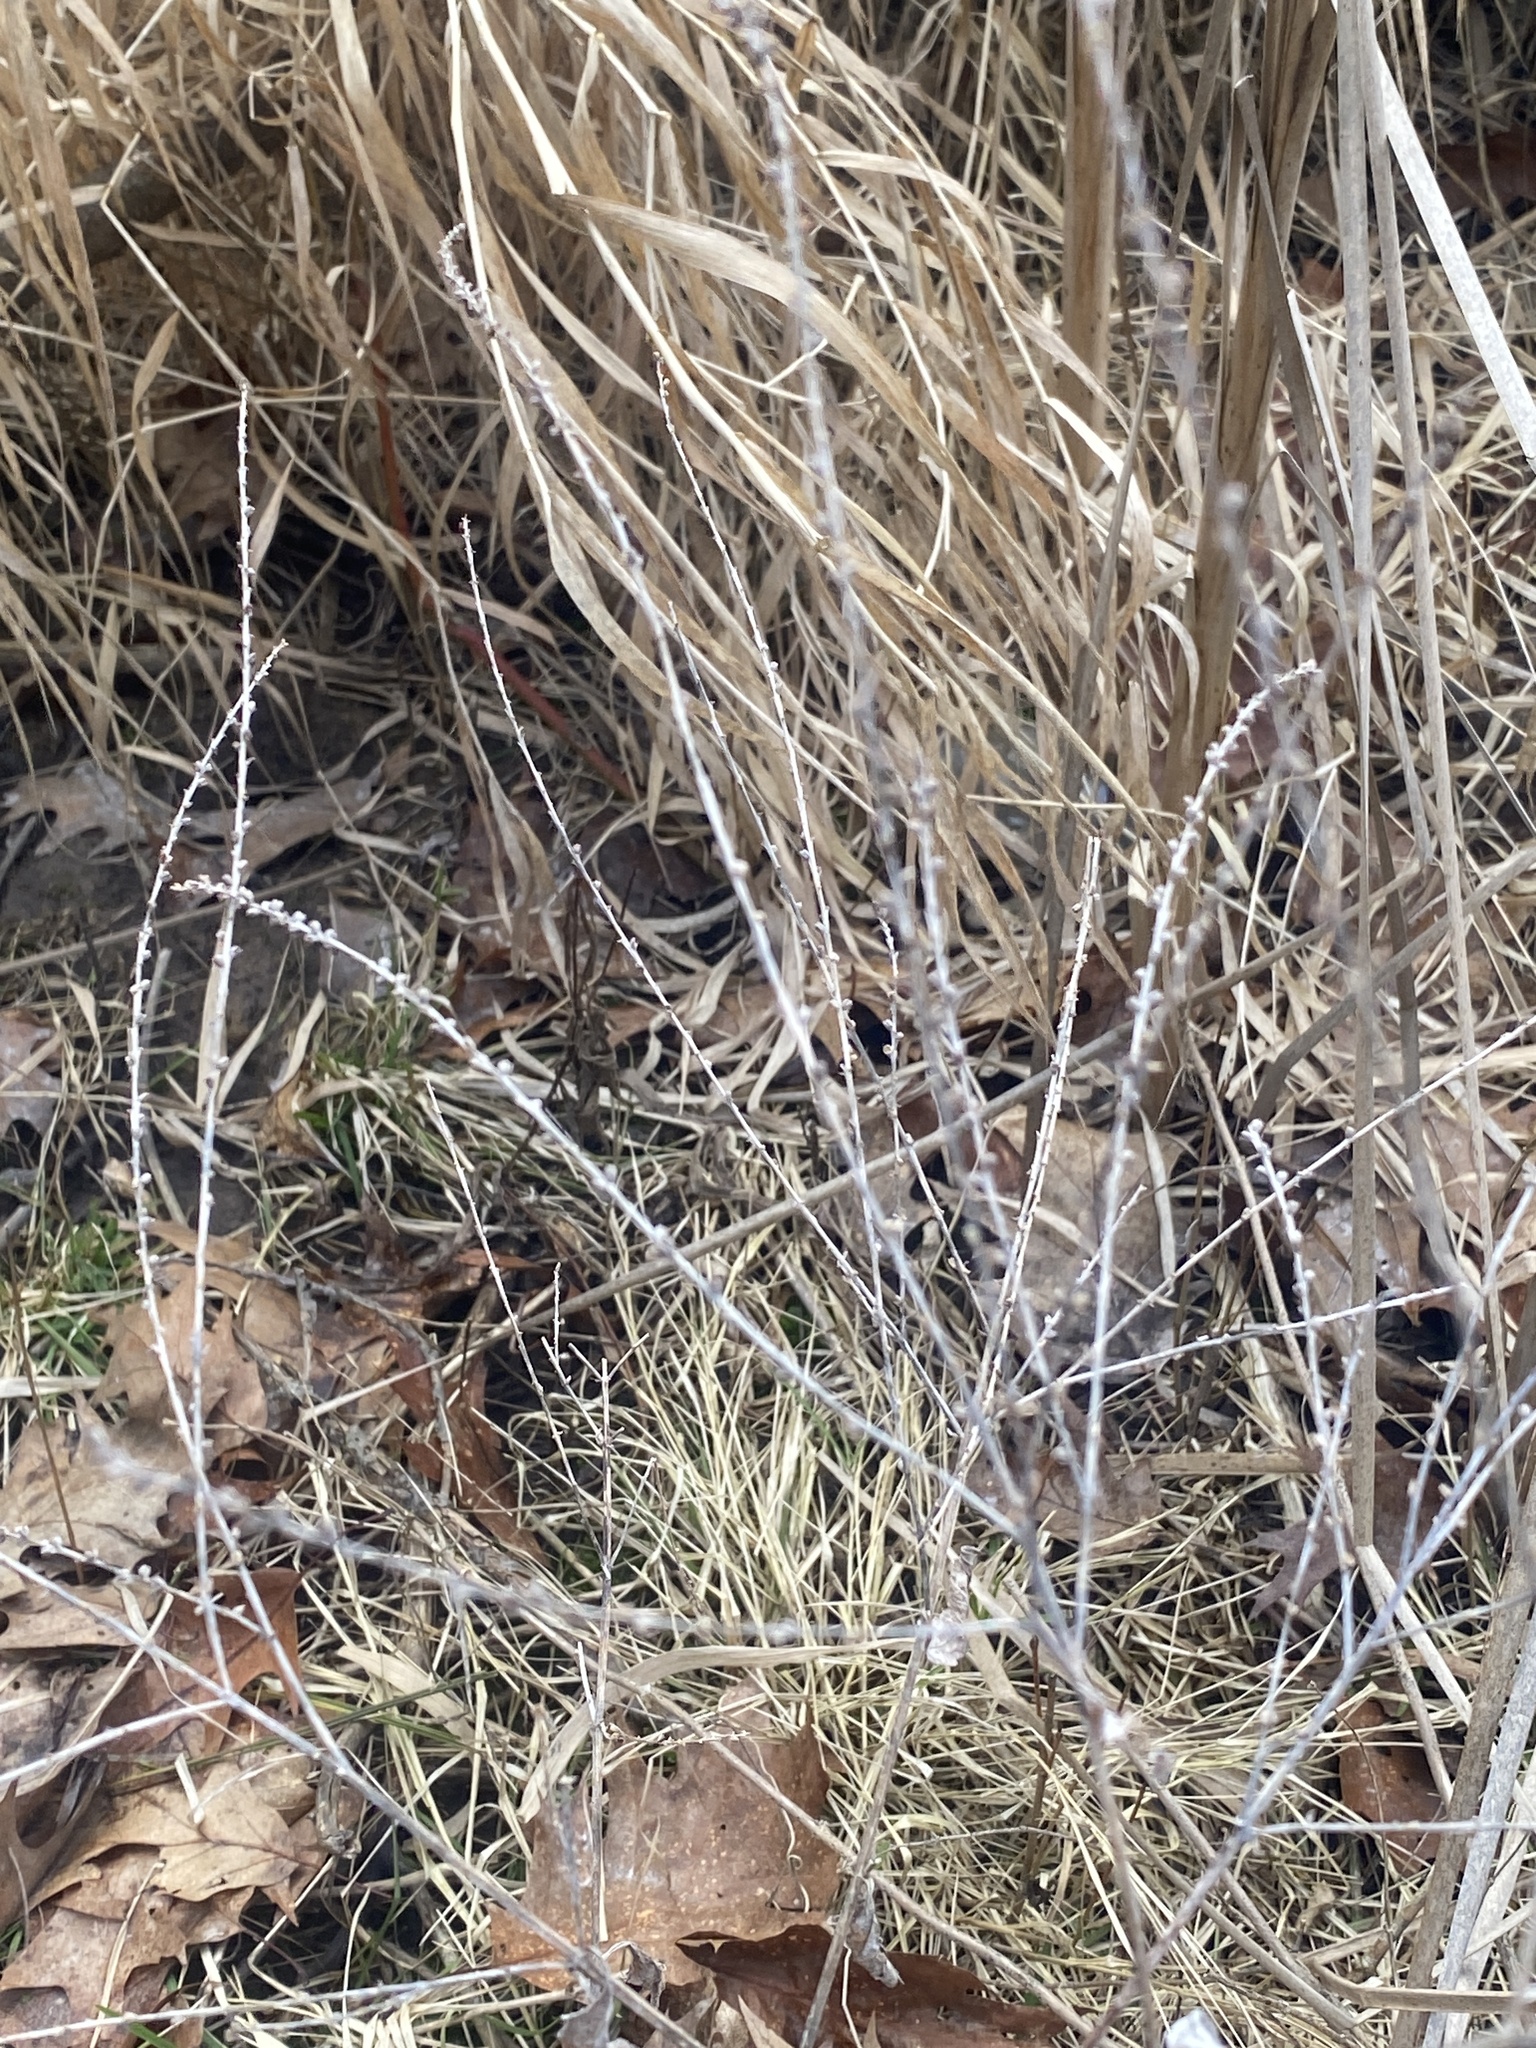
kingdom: Plantae
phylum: Tracheophyta
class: Magnoliopsida
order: Lamiales
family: Verbenaceae
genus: Verbena
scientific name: Verbena urticifolia
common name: Nettle-leaved vervain
